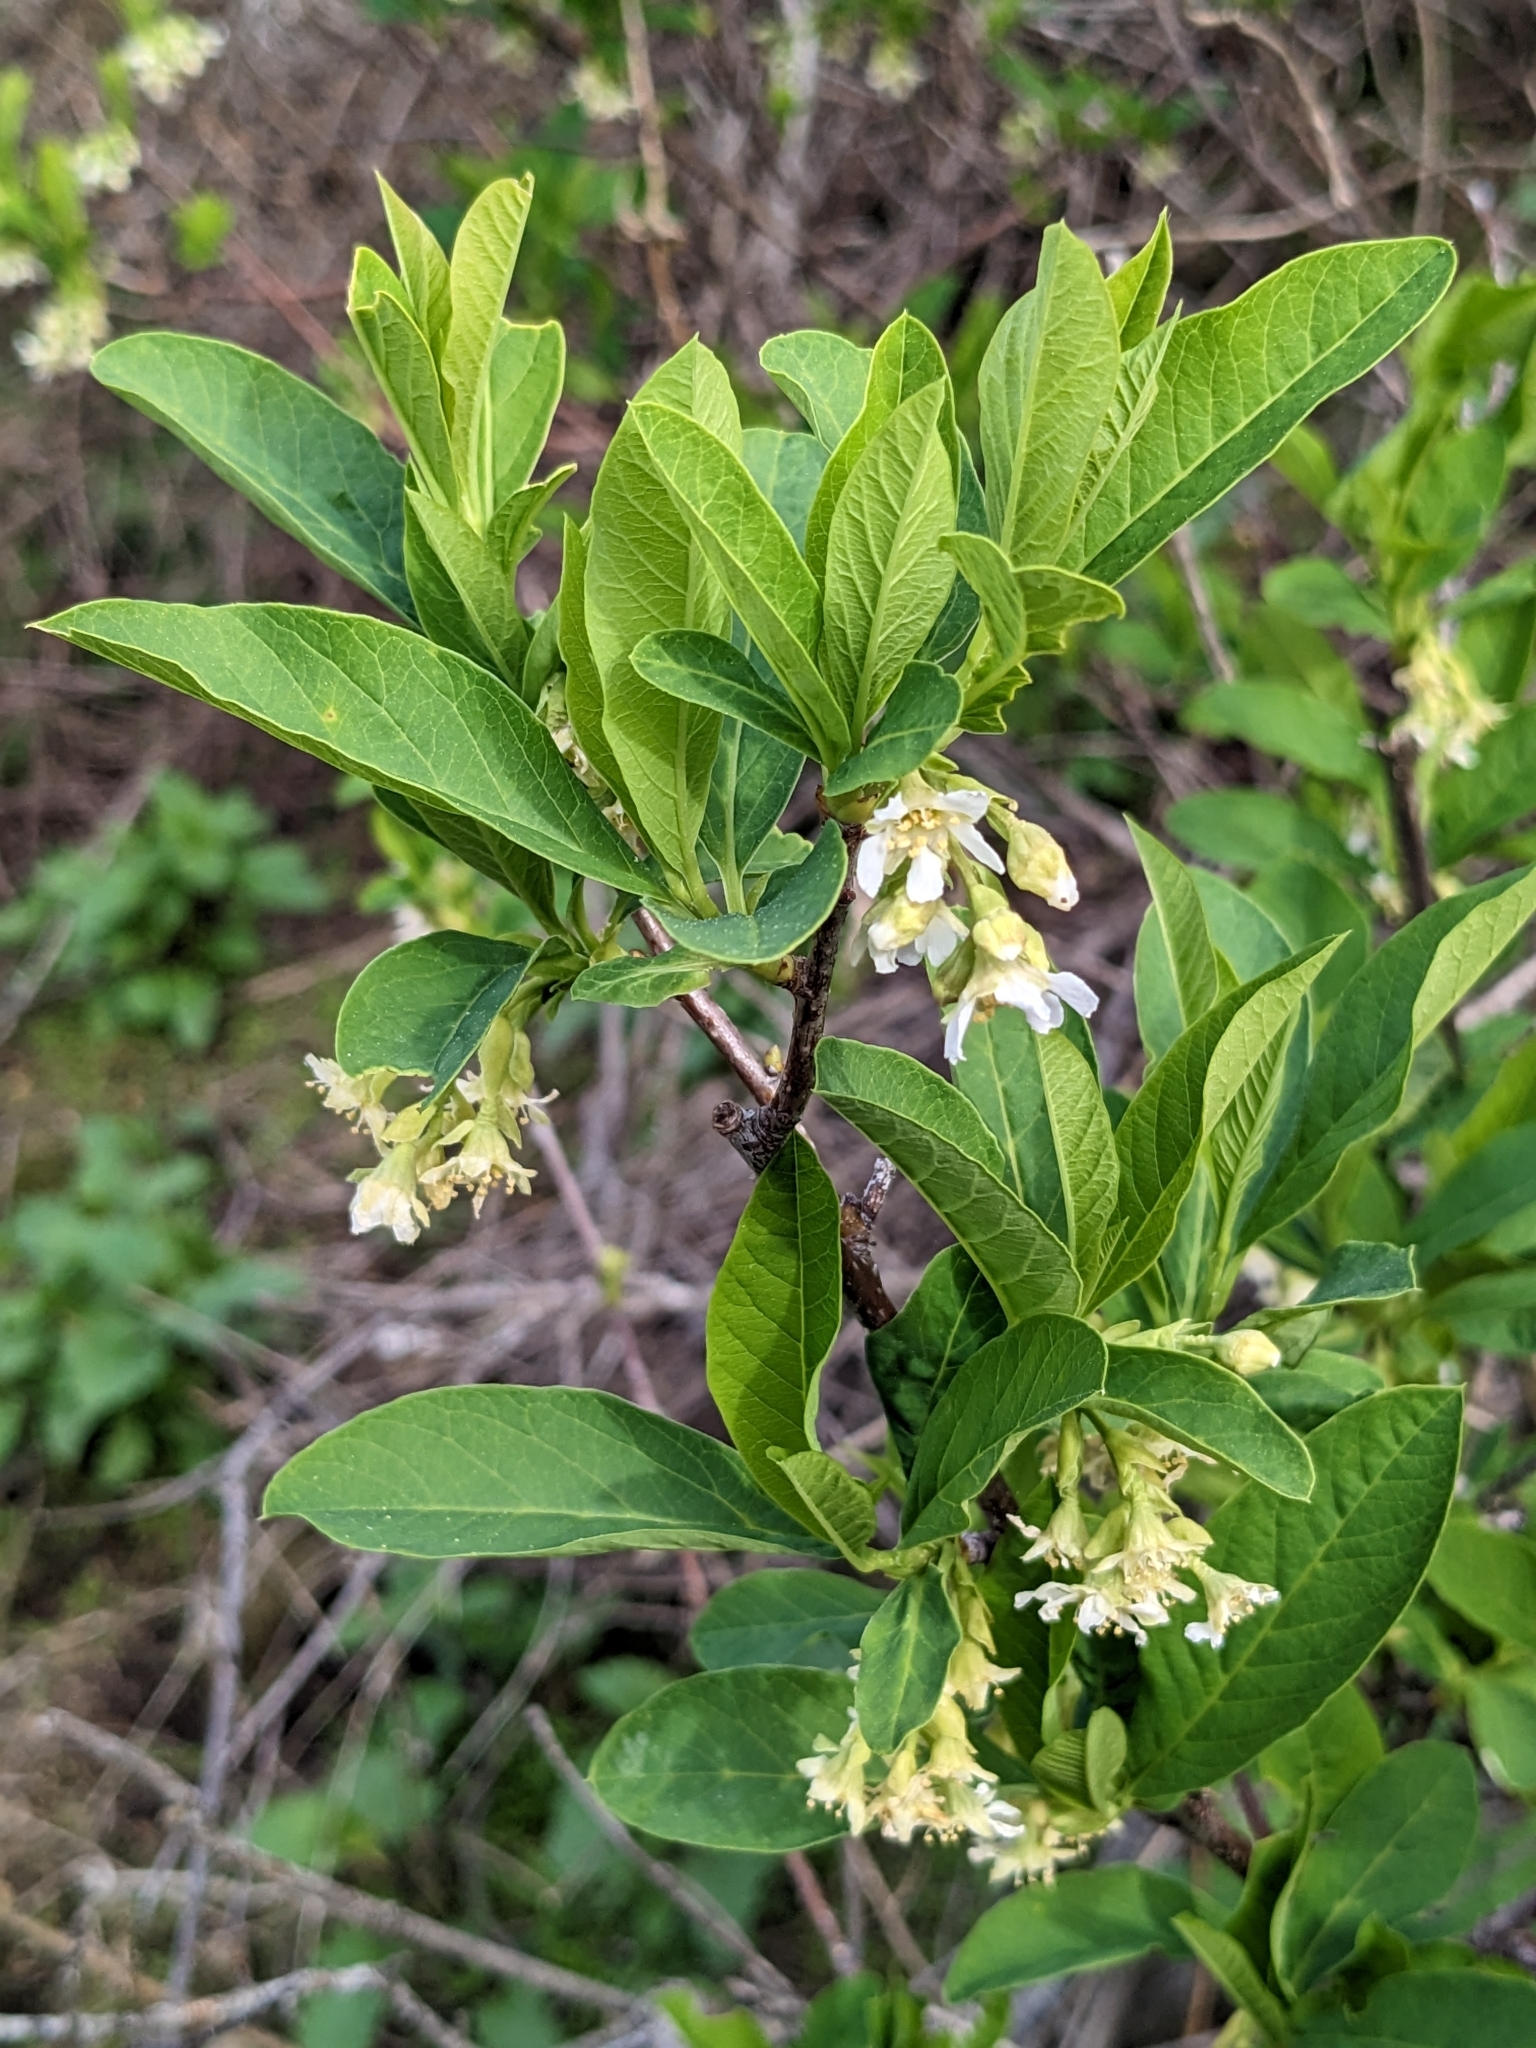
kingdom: Plantae
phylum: Tracheophyta
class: Magnoliopsida
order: Rosales
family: Rosaceae
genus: Oemleria
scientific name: Oemleria cerasiformis
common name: Osoberry
